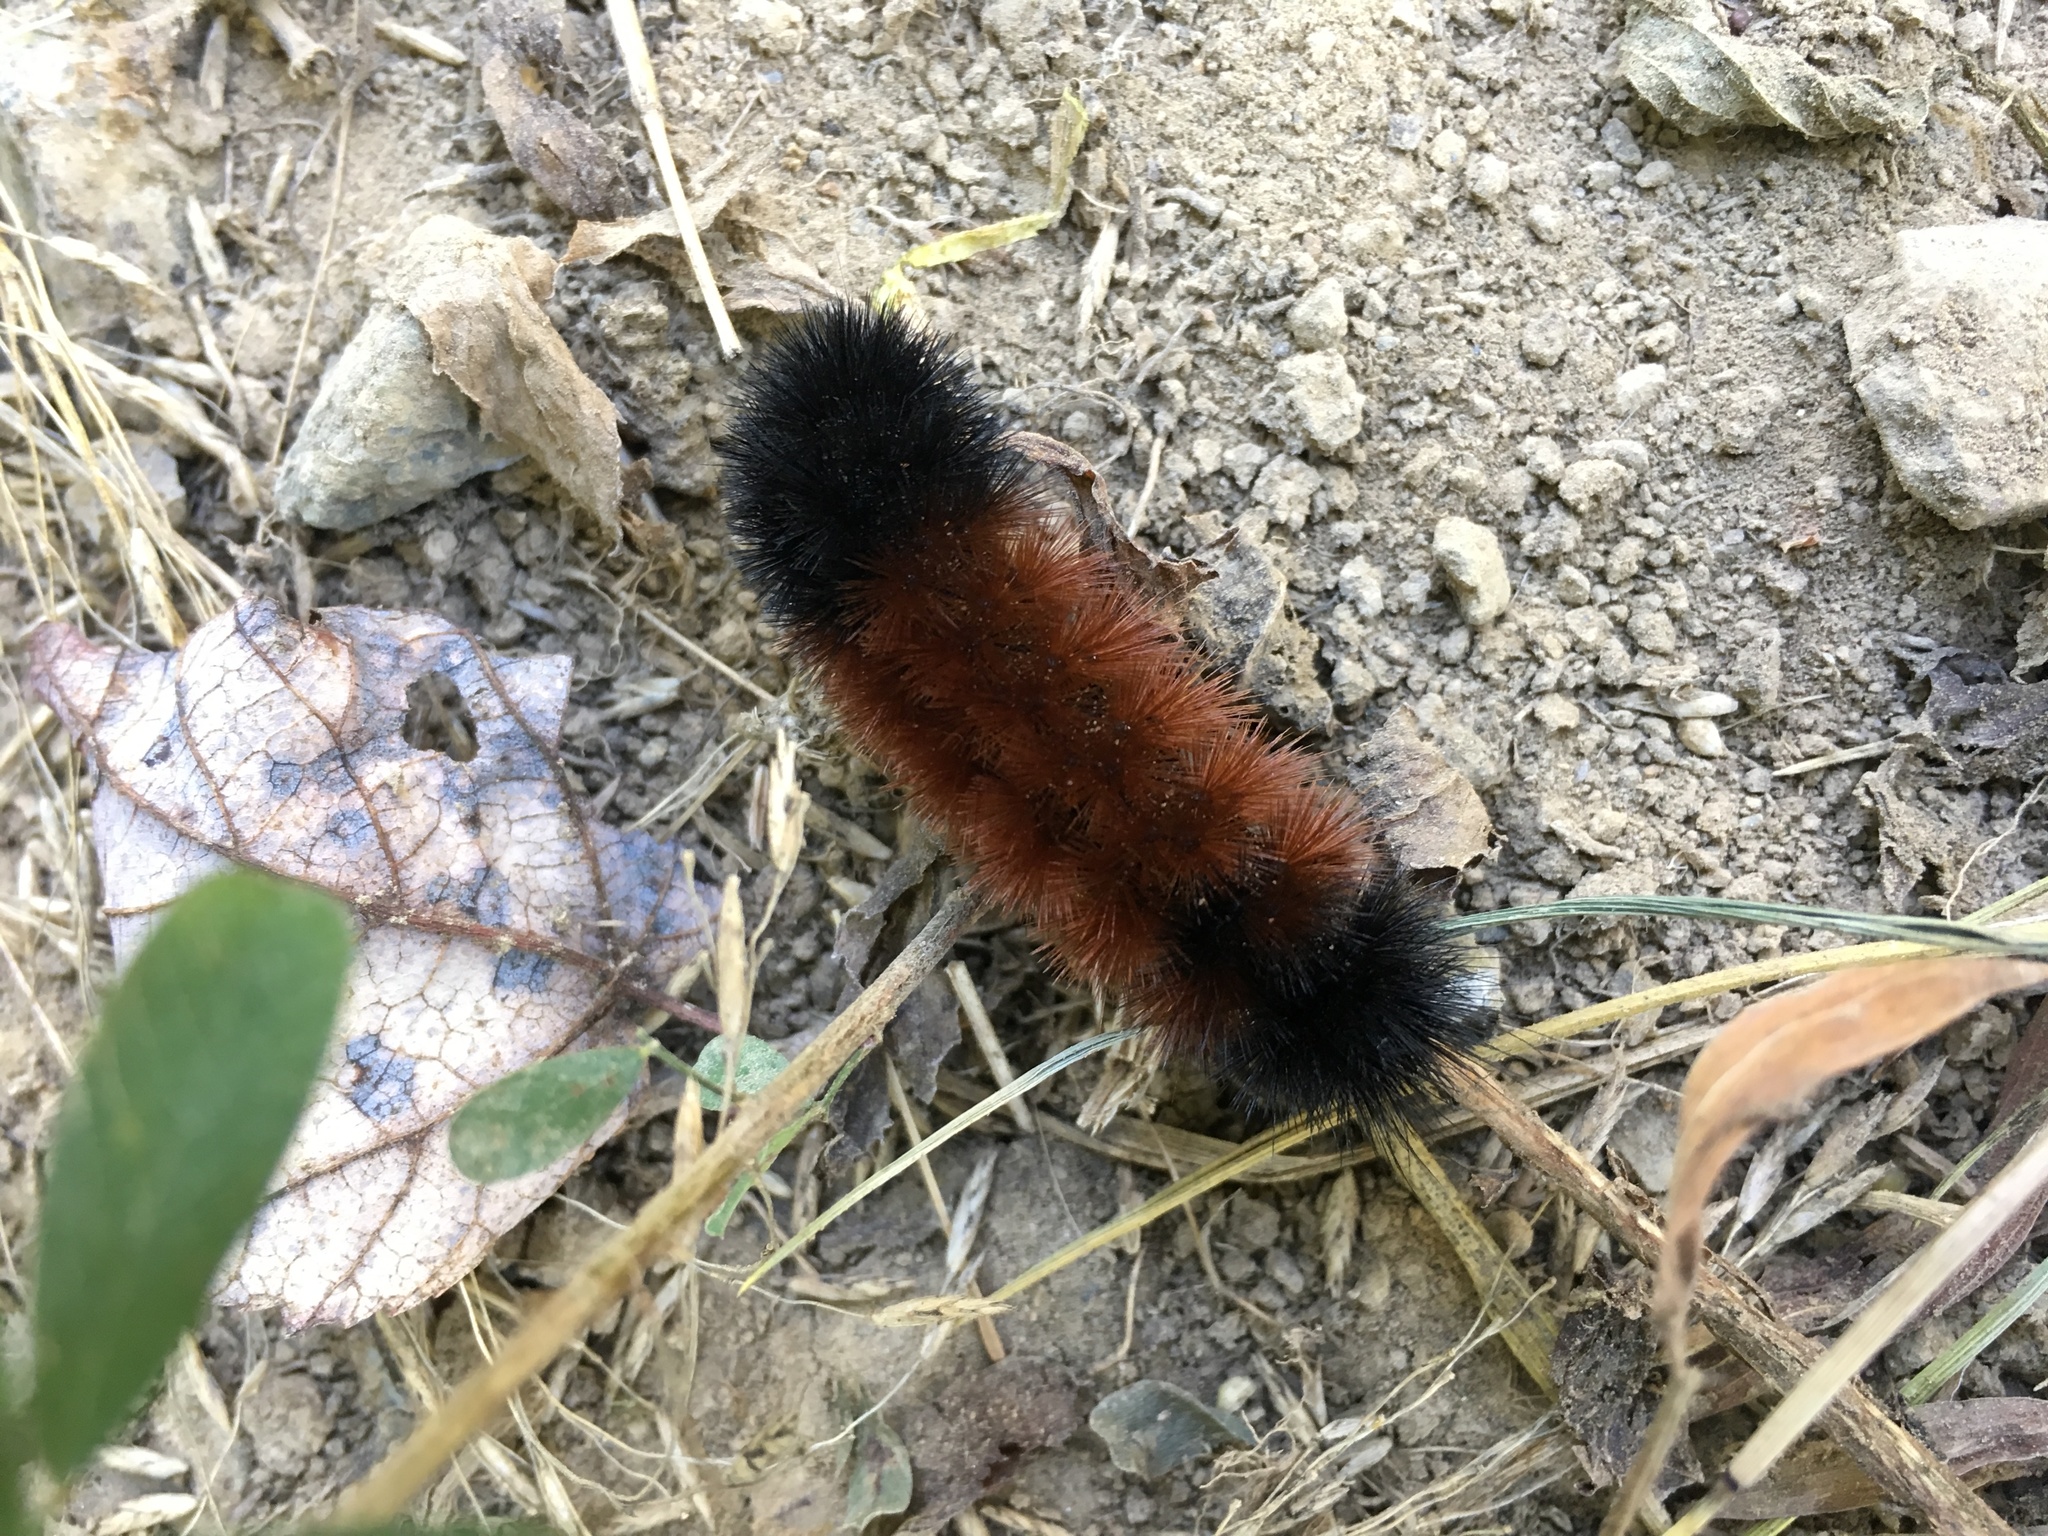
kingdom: Animalia
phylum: Arthropoda
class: Insecta
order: Lepidoptera
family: Erebidae
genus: Pyrrharctia
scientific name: Pyrrharctia isabella
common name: Isabella tiger moth
